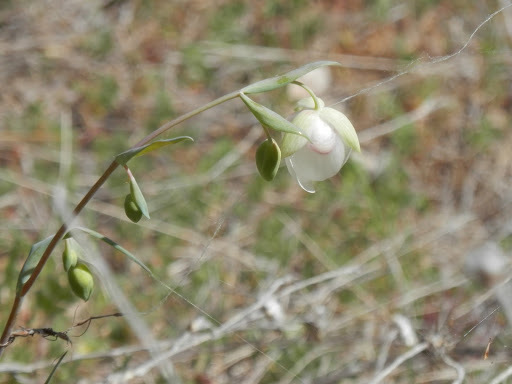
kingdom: Plantae
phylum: Tracheophyta
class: Liliopsida
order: Liliales
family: Liliaceae
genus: Calochortus
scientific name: Calochortus albus
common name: Fairy-lantern
